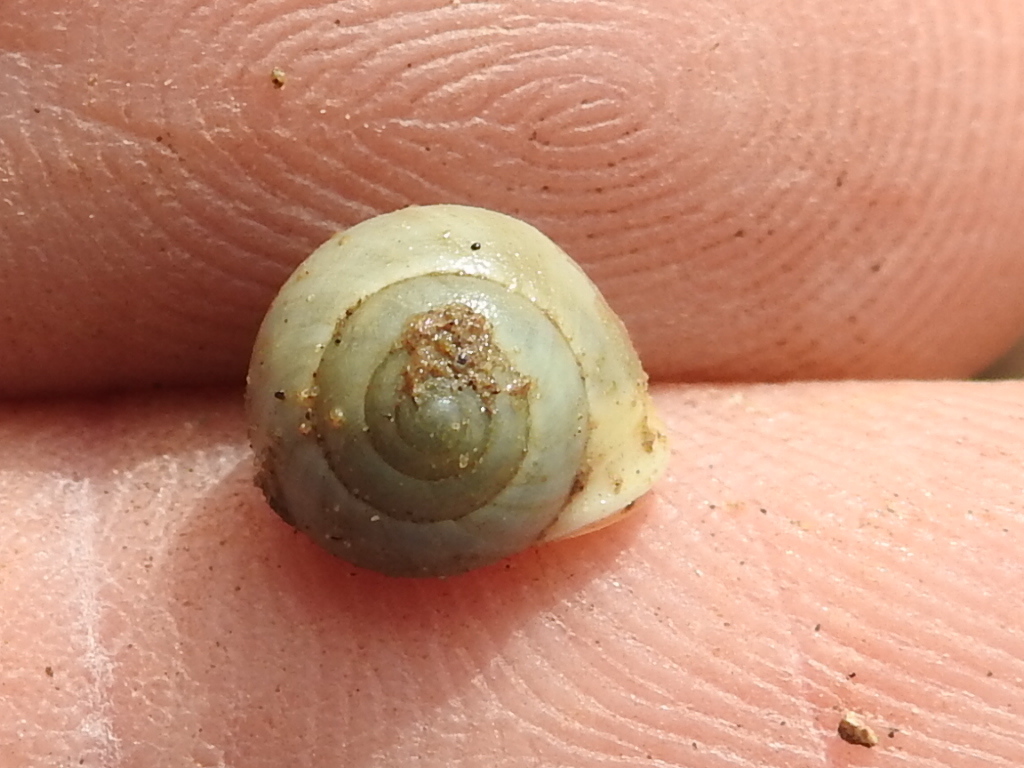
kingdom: Animalia
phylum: Mollusca
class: Gastropoda
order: Cycloneritida
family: Helicinidae
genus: Helicina
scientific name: Helicina orbiculata
